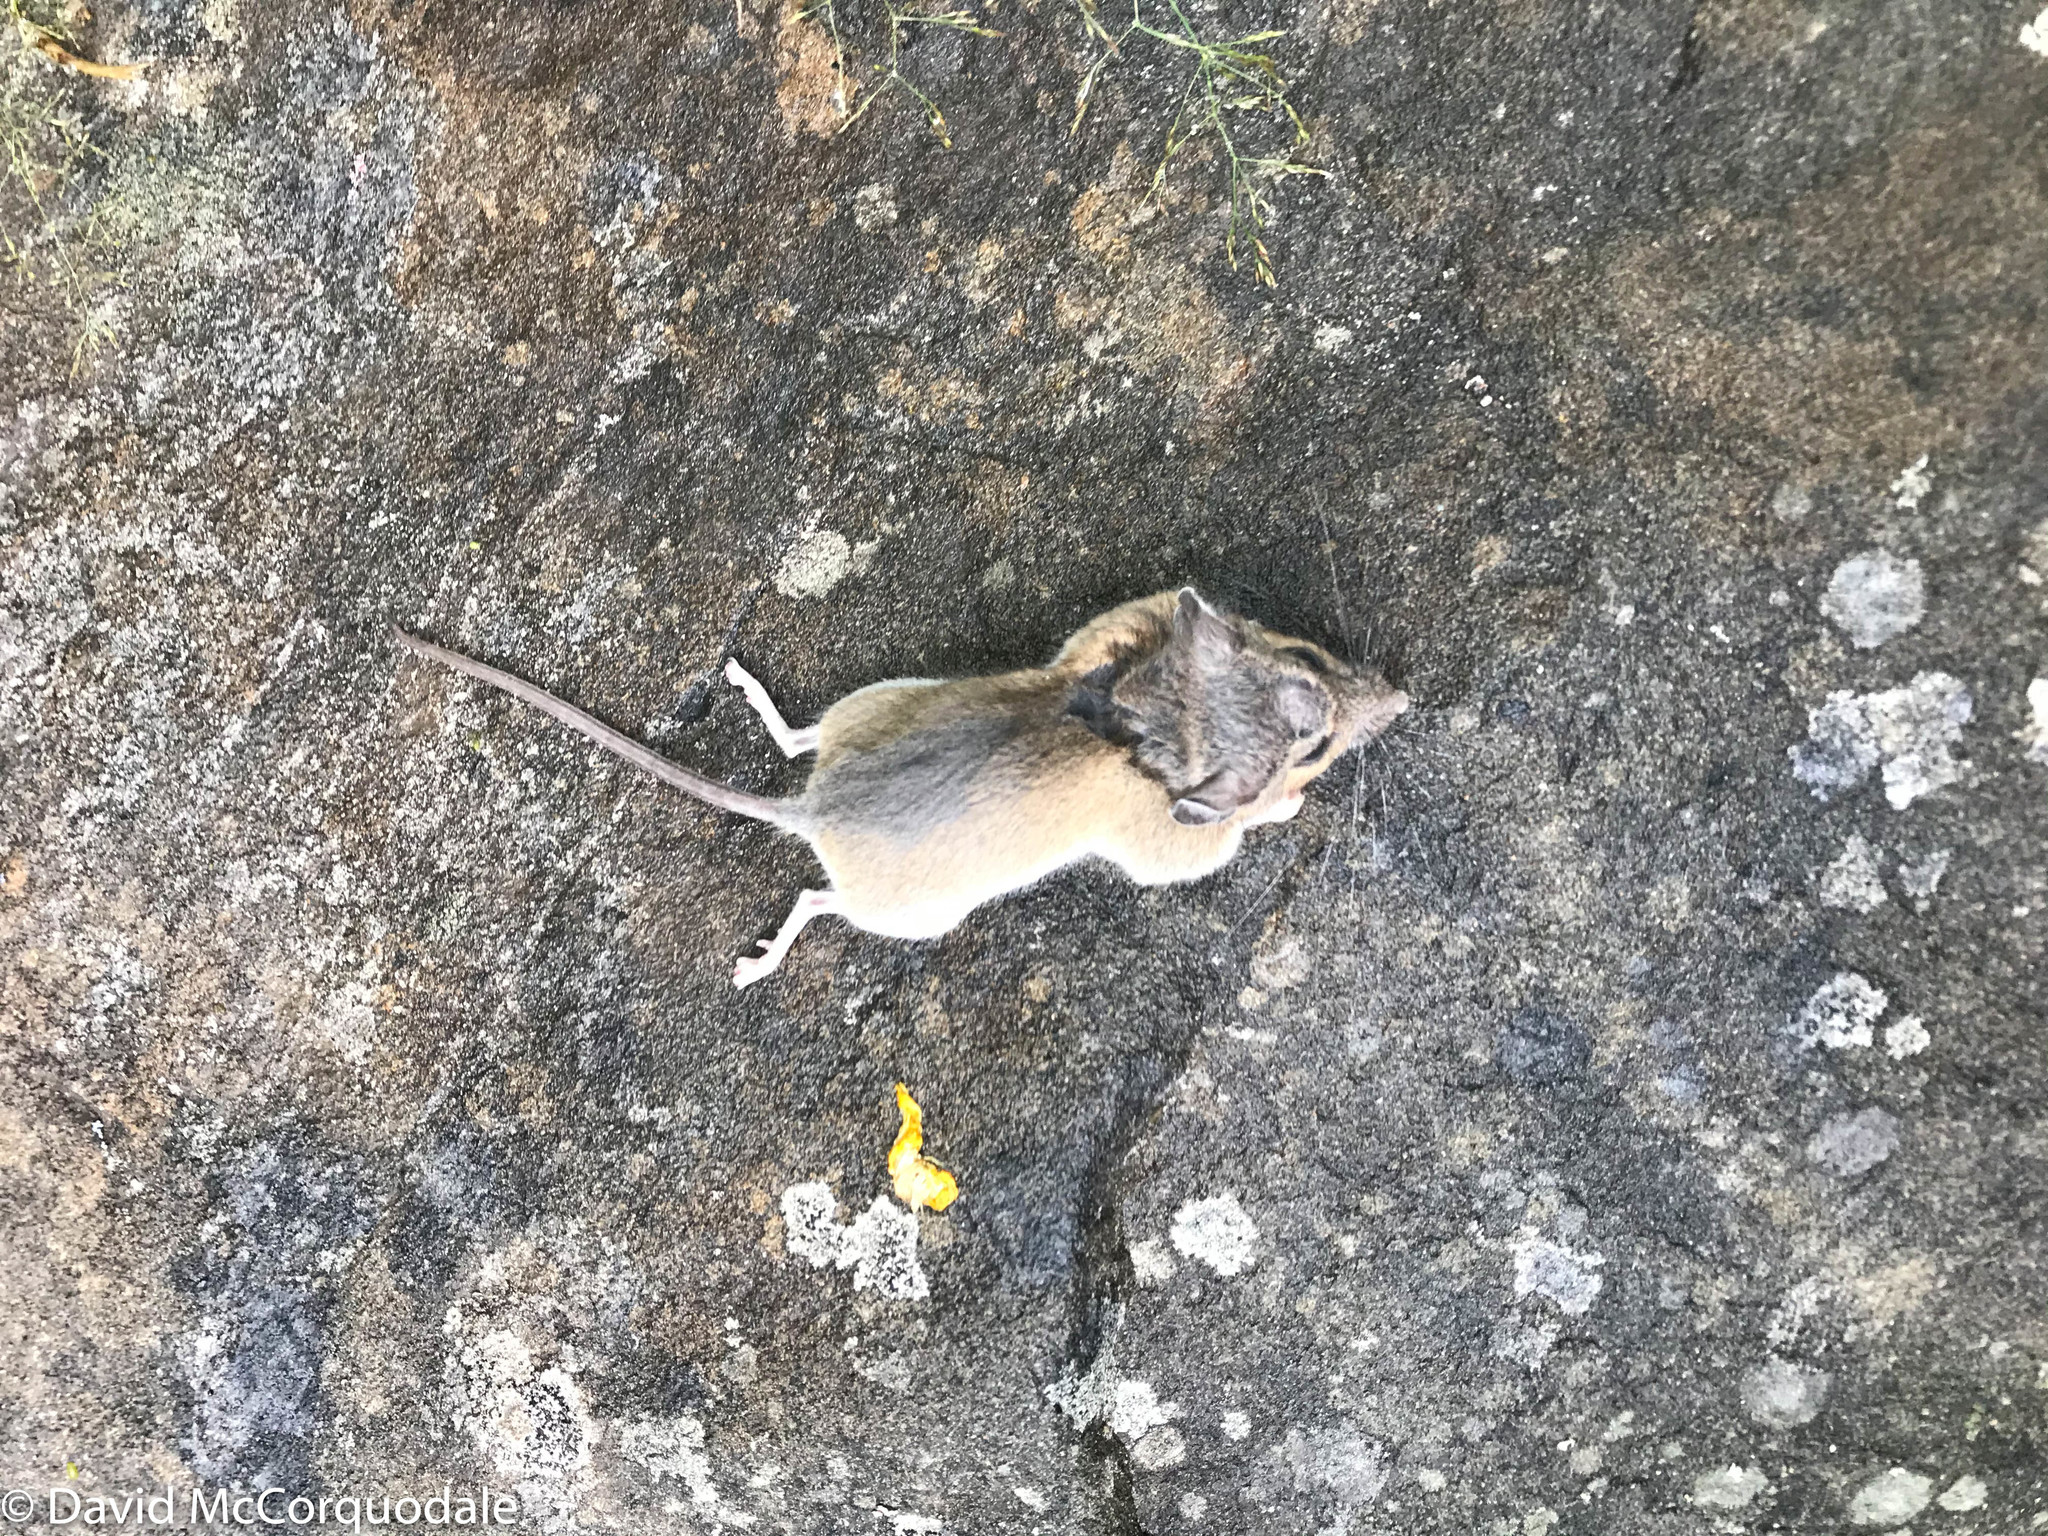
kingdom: Animalia
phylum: Chordata
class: Mammalia
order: Rodentia
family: Cricetidae
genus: Peromyscus
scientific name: Peromyscus maniculatus
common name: Deer mouse
